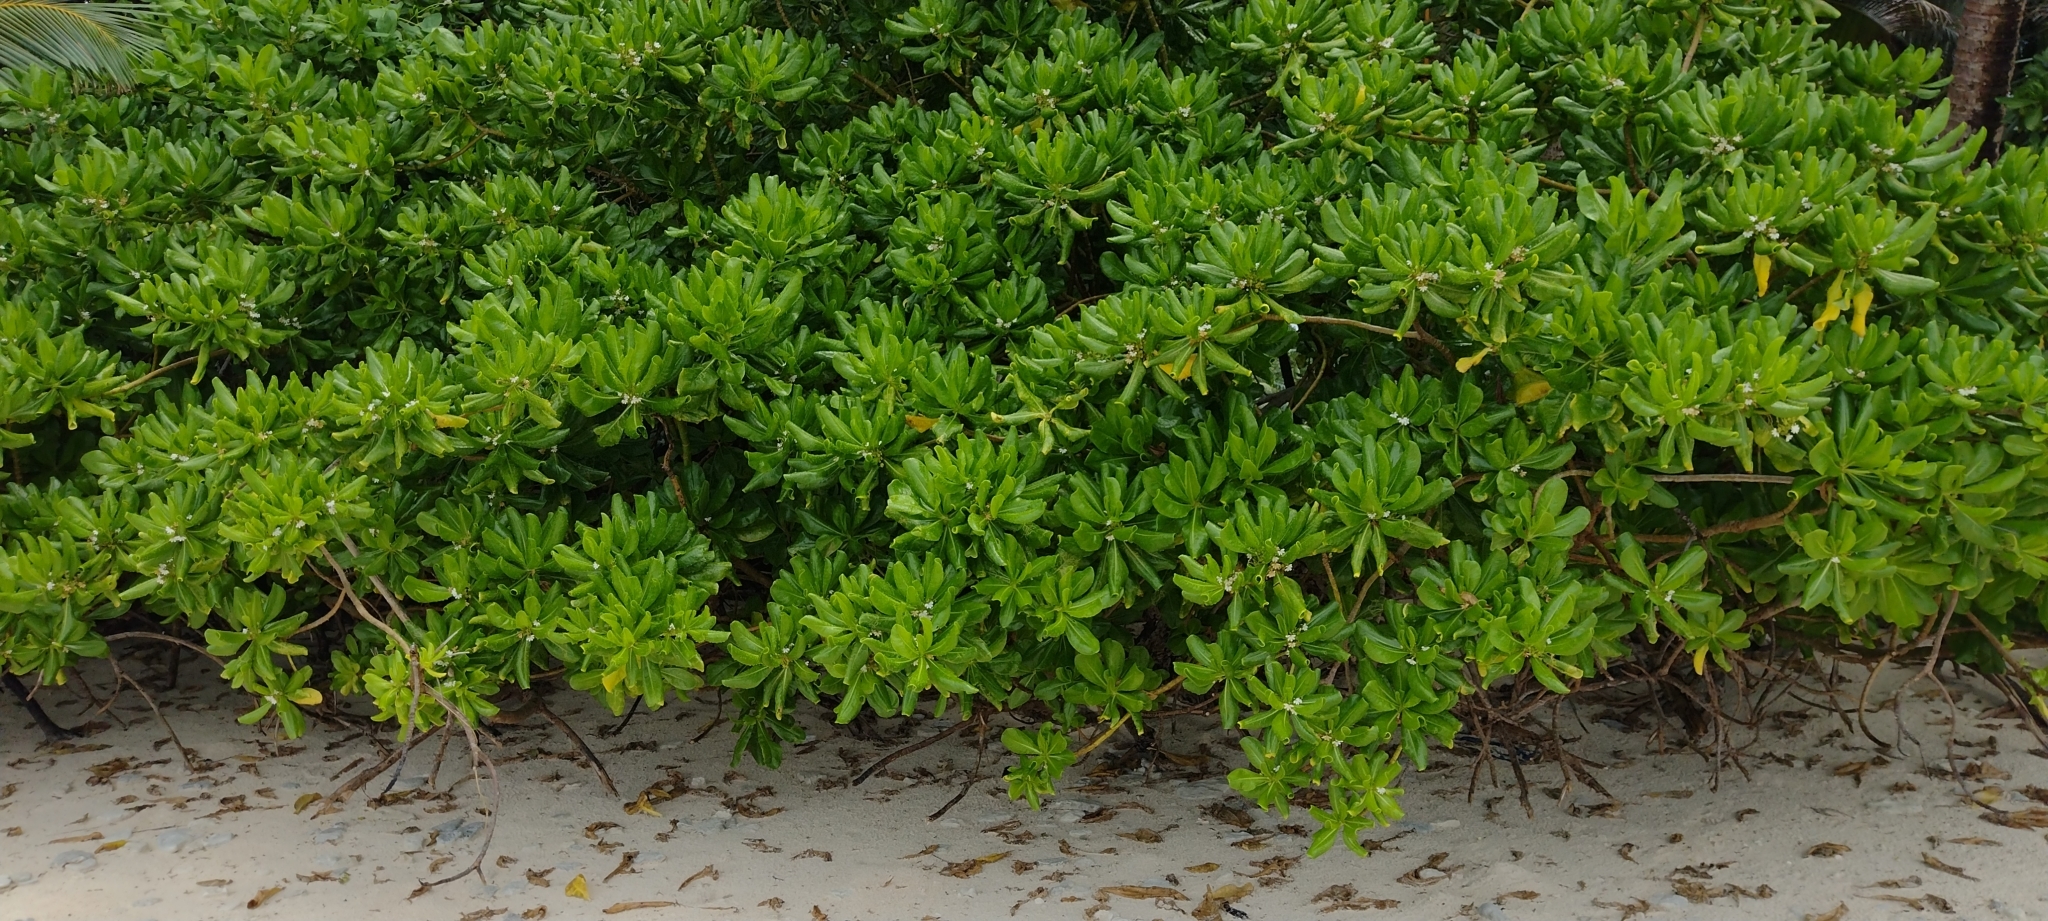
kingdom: Plantae
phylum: Tracheophyta
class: Magnoliopsida
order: Asterales
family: Goodeniaceae
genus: Scaevola
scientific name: Scaevola taccada
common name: Sea lettucetree
